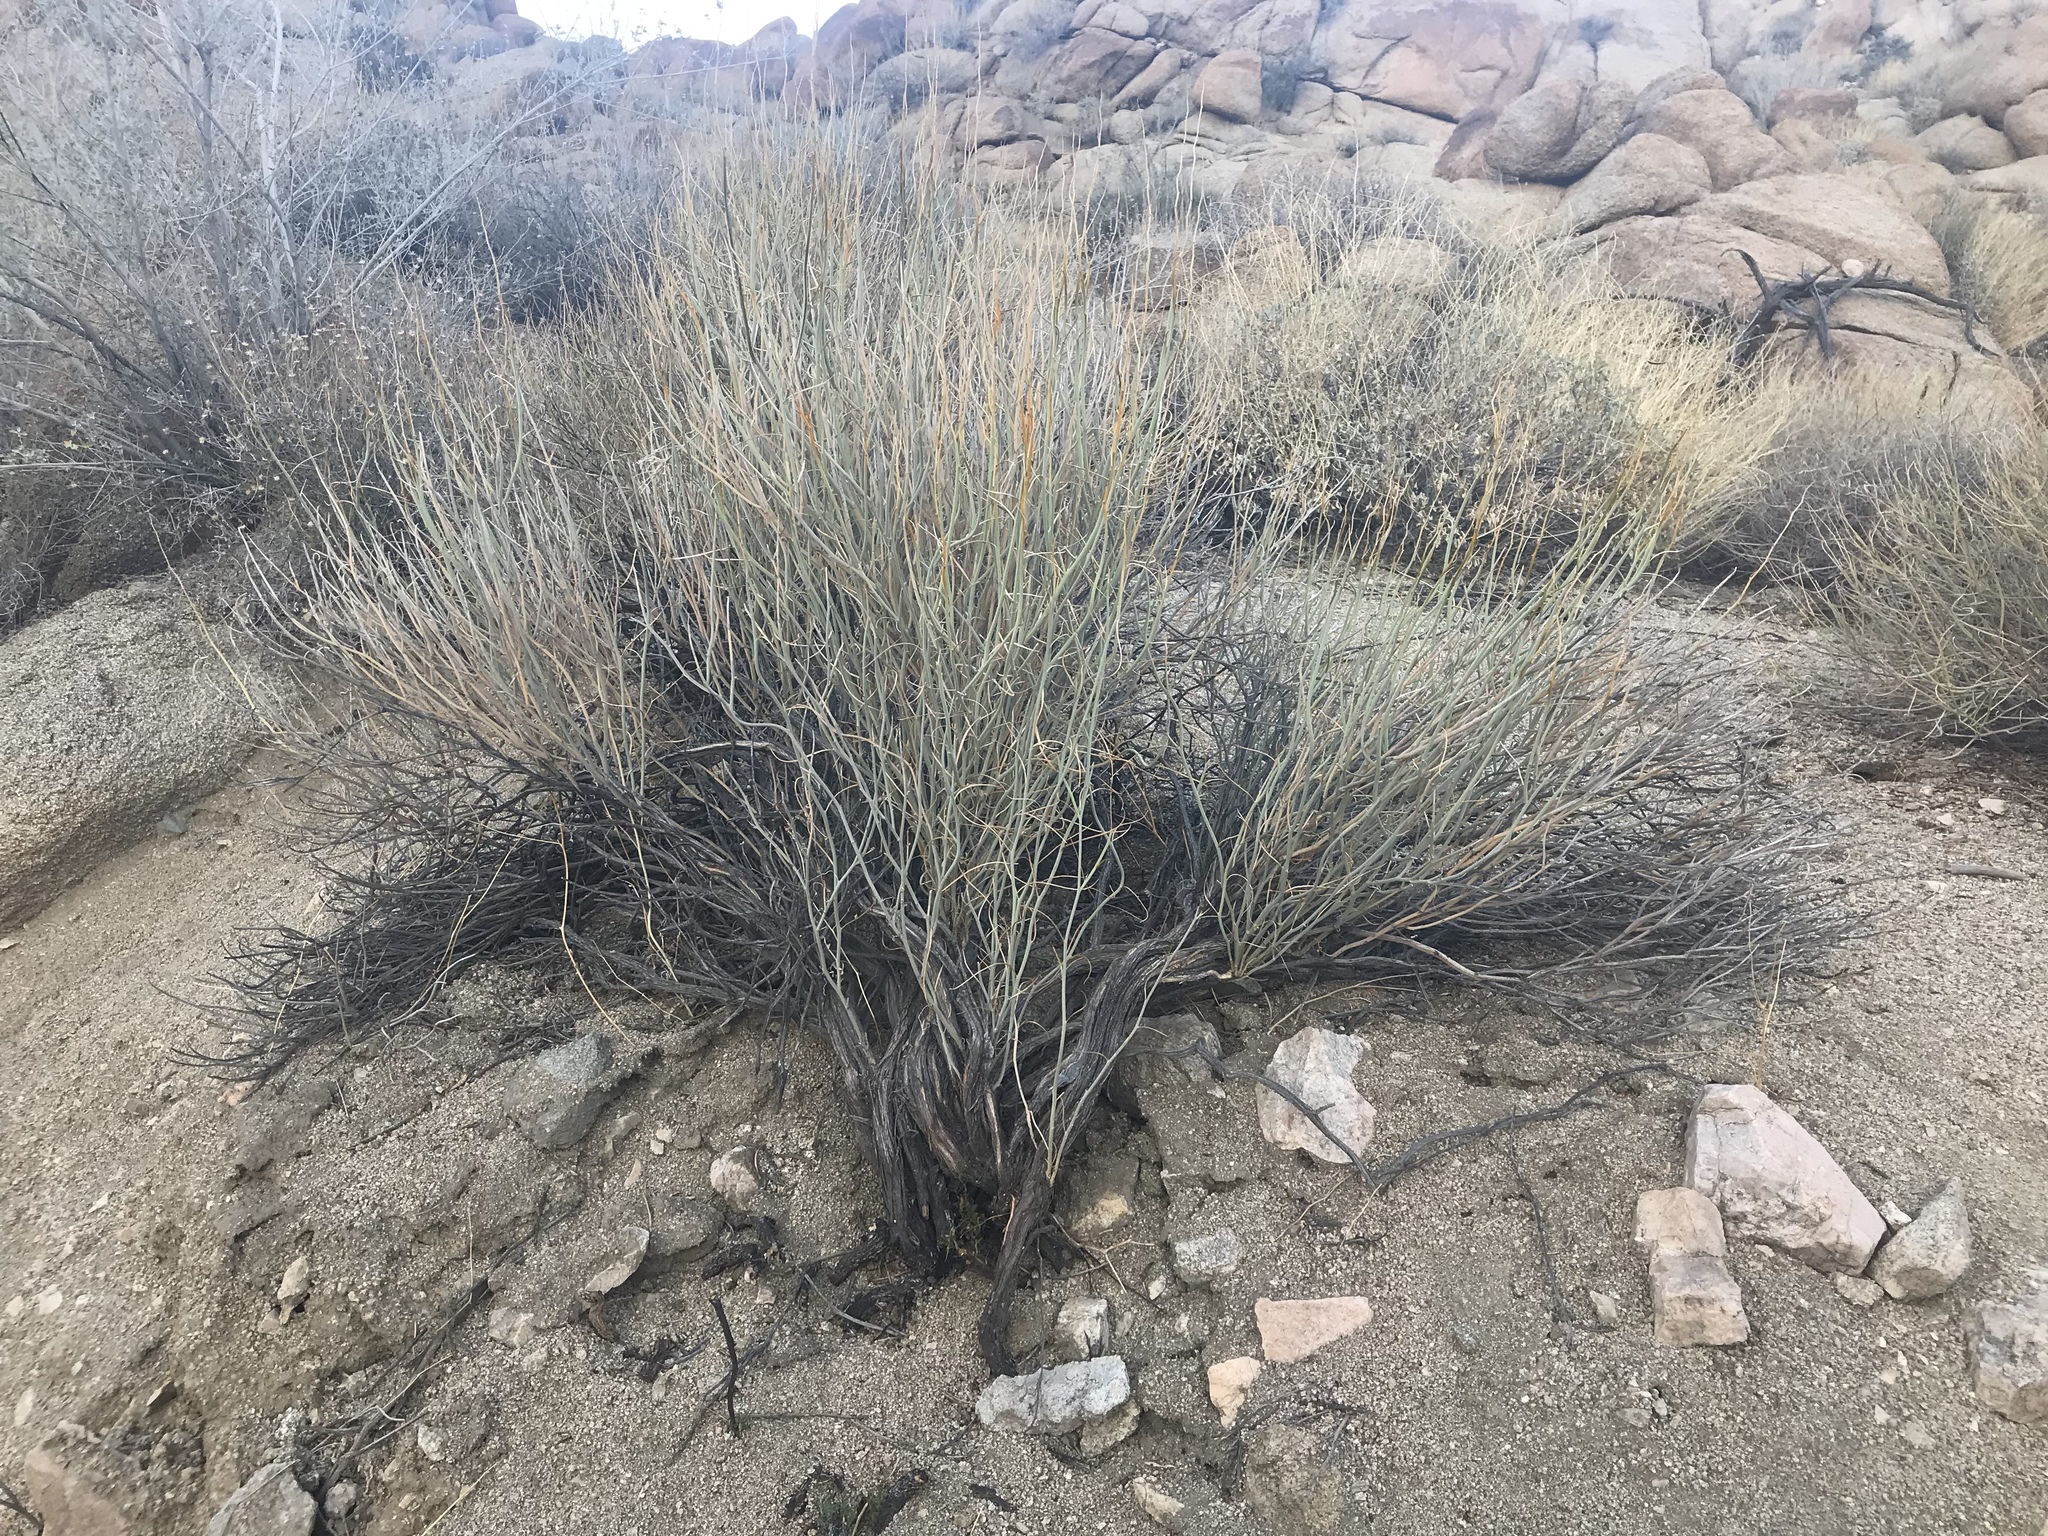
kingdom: Plantae
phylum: Tracheophyta
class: Magnoliopsida
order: Fabales
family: Fabaceae
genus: Senna
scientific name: Senna armata
